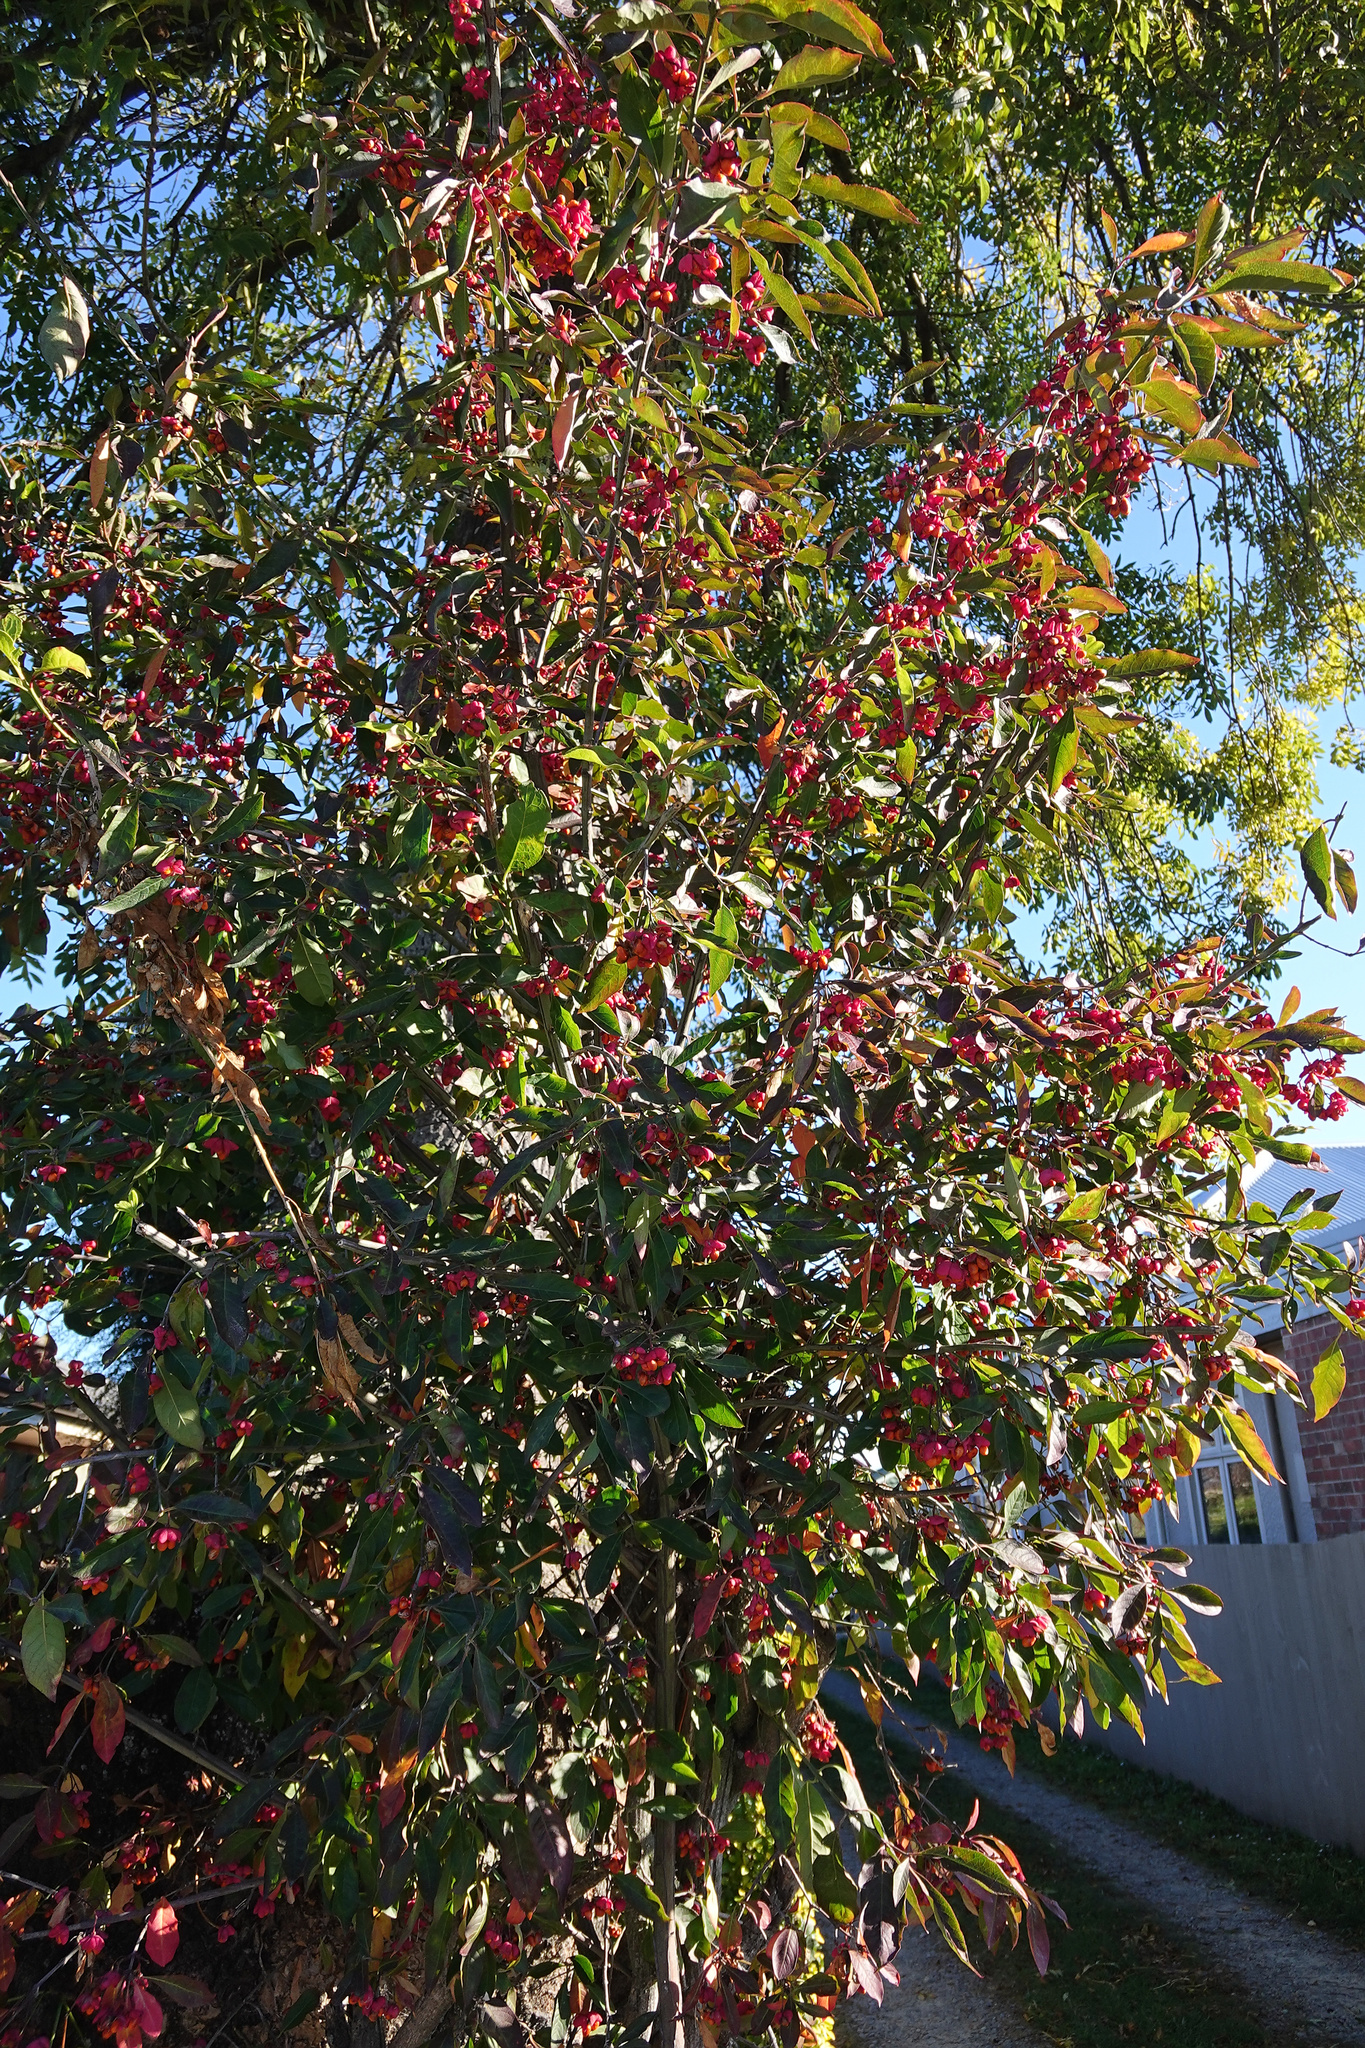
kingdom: Plantae
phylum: Tracheophyta
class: Magnoliopsida
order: Celastrales
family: Celastraceae
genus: Euonymus
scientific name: Euonymus europaeus
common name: Spindle
